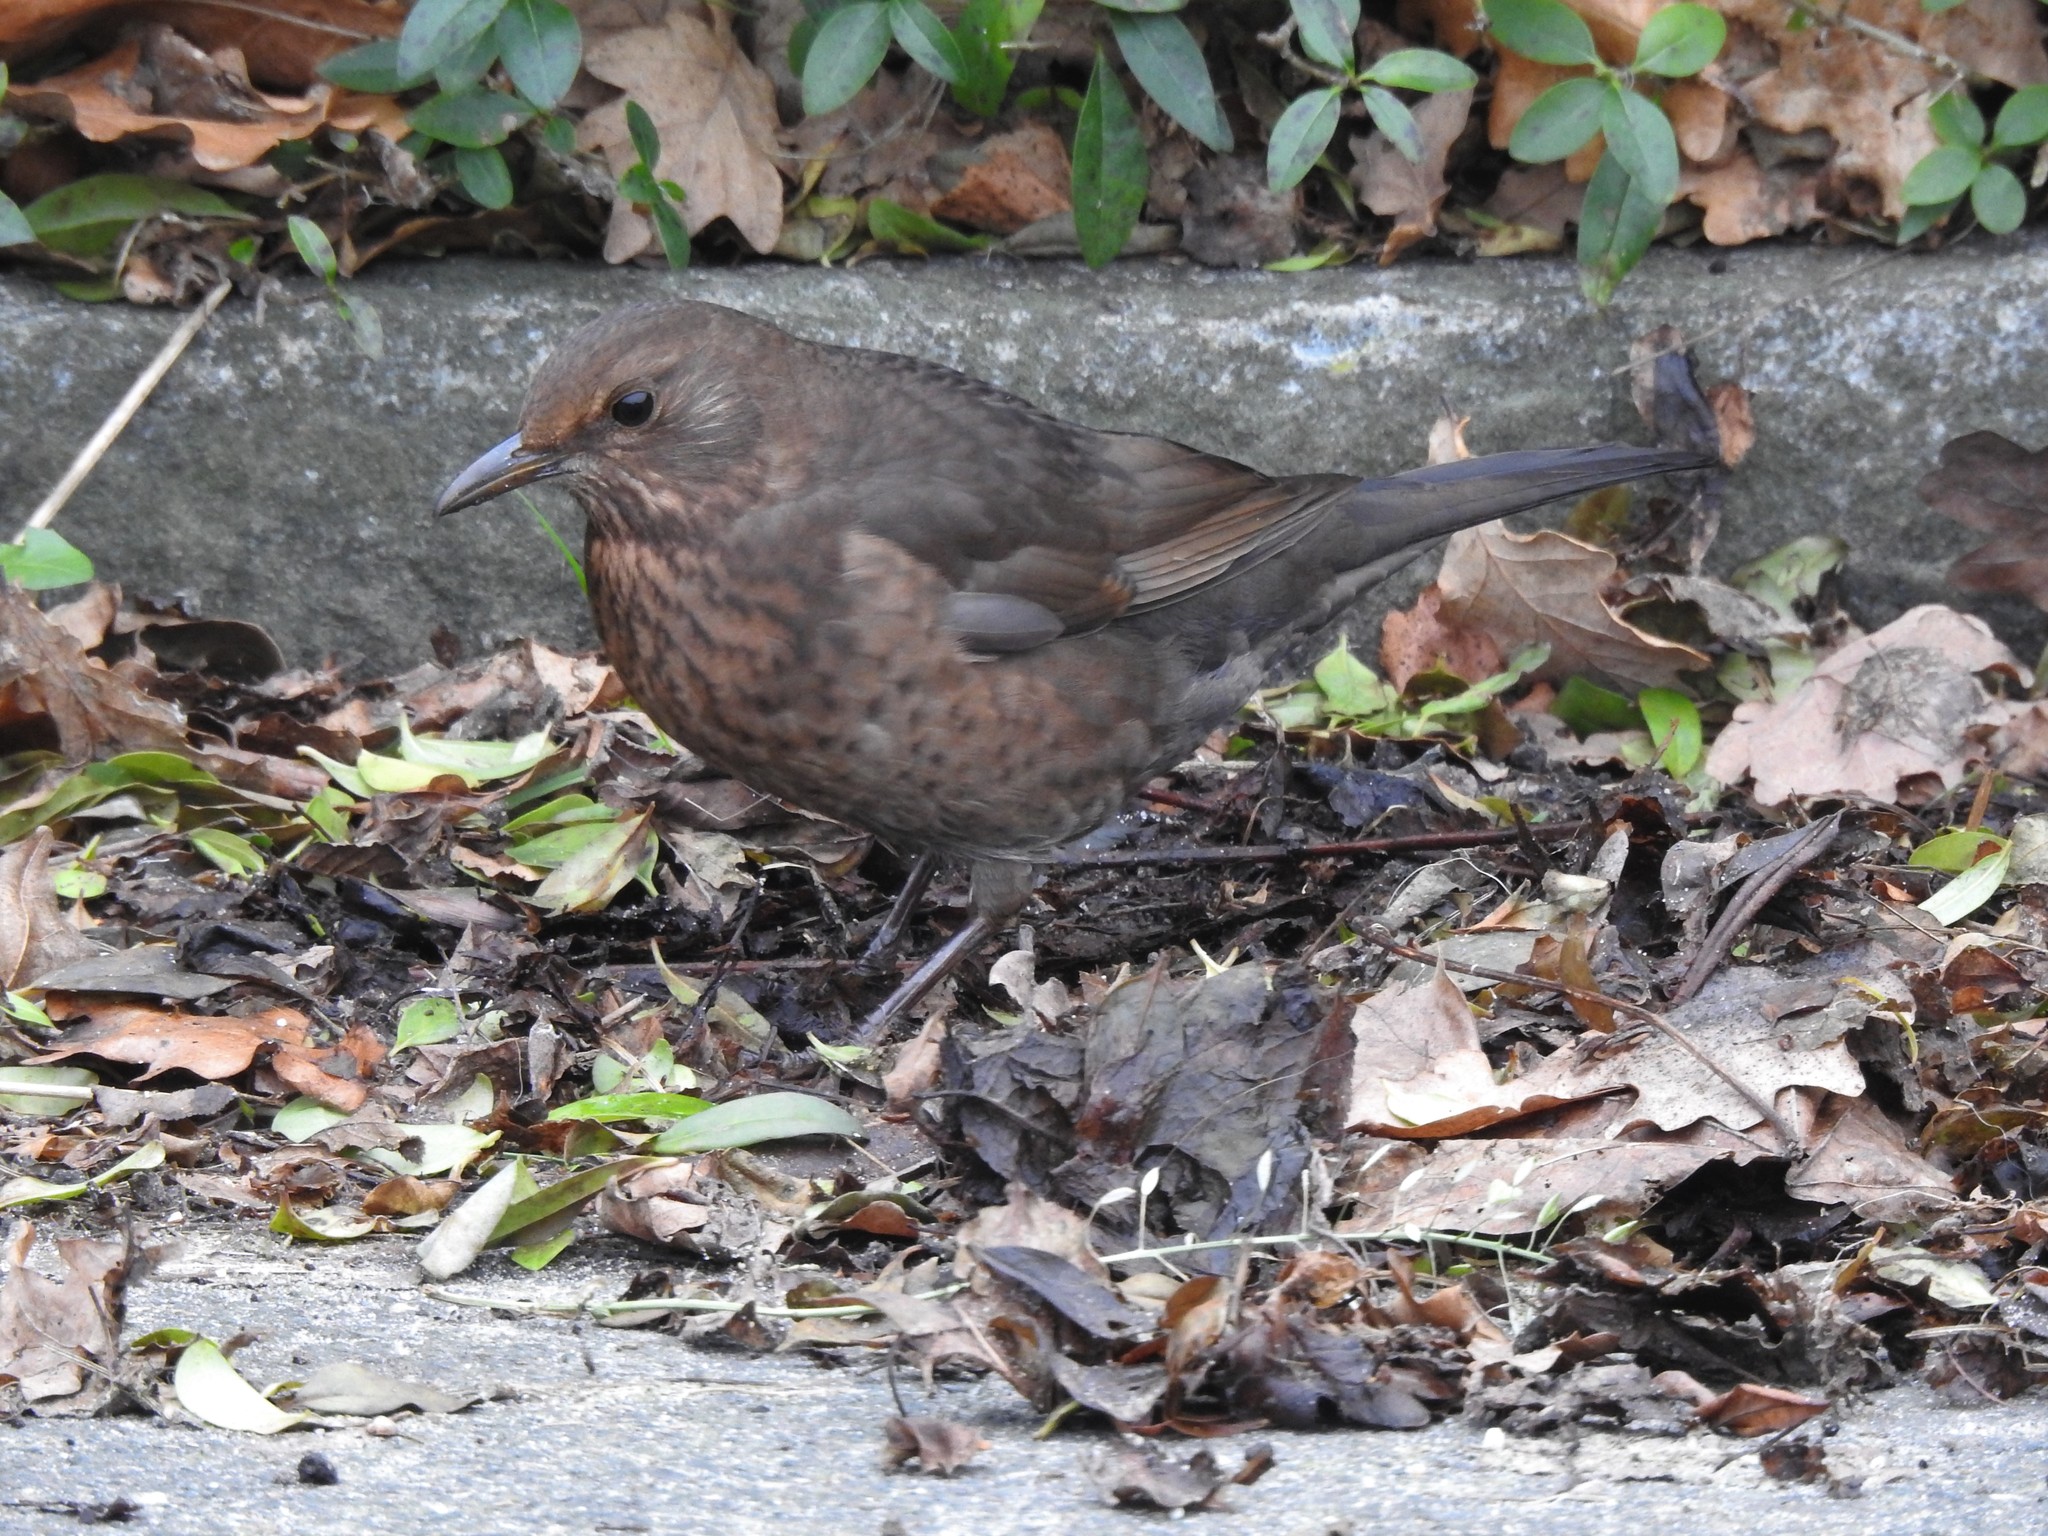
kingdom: Animalia
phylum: Chordata
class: Aves
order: Passeriformes
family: Turdidae
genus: Turdus
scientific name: Turdus merula
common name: Common blackbird
